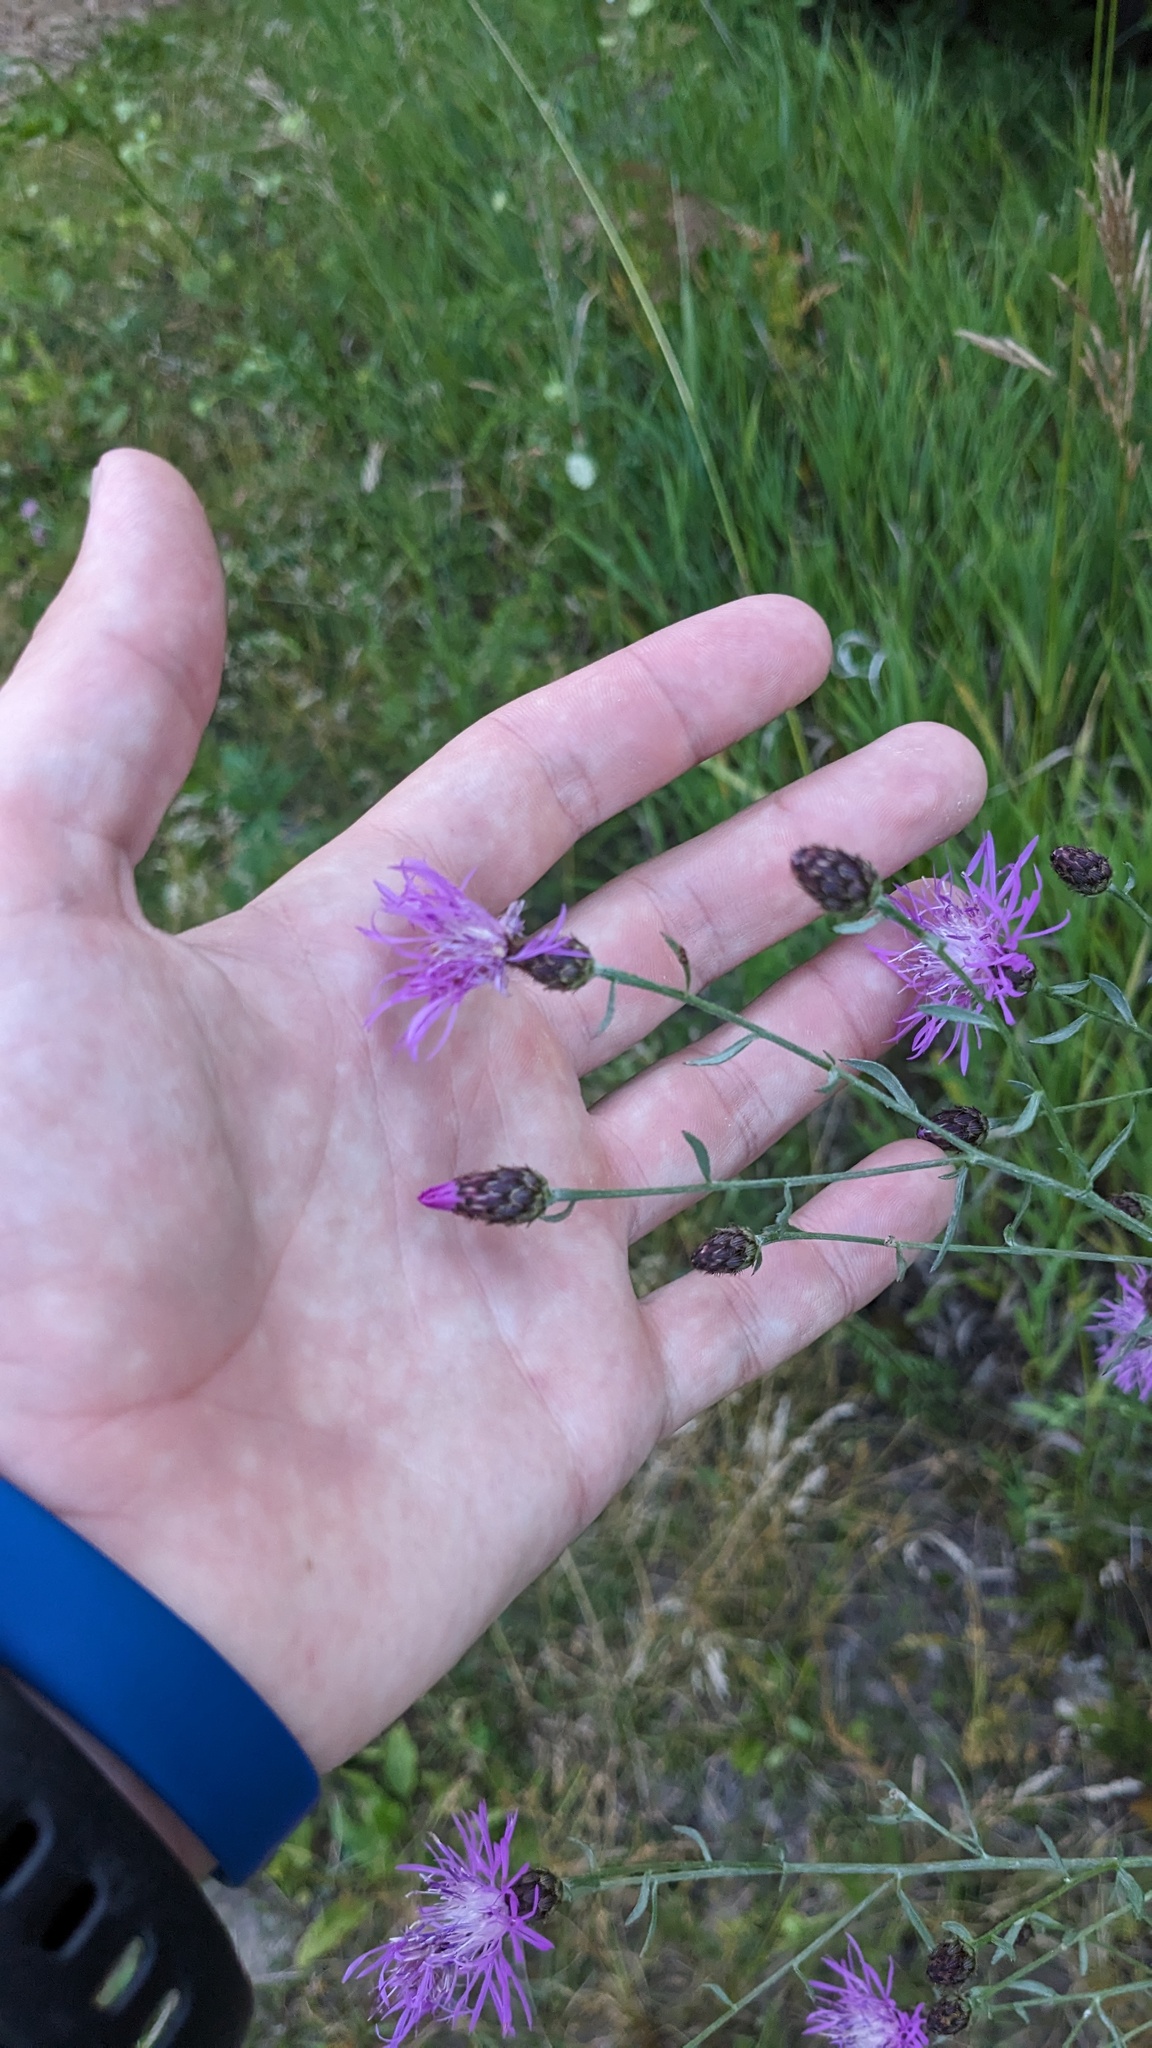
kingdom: Plantae
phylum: Tracheophyta
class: Magnoliopsida
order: Asterales
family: Asteraceae
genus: Centaurea
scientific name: Centaurea stoebe
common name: Spotted knapweed
